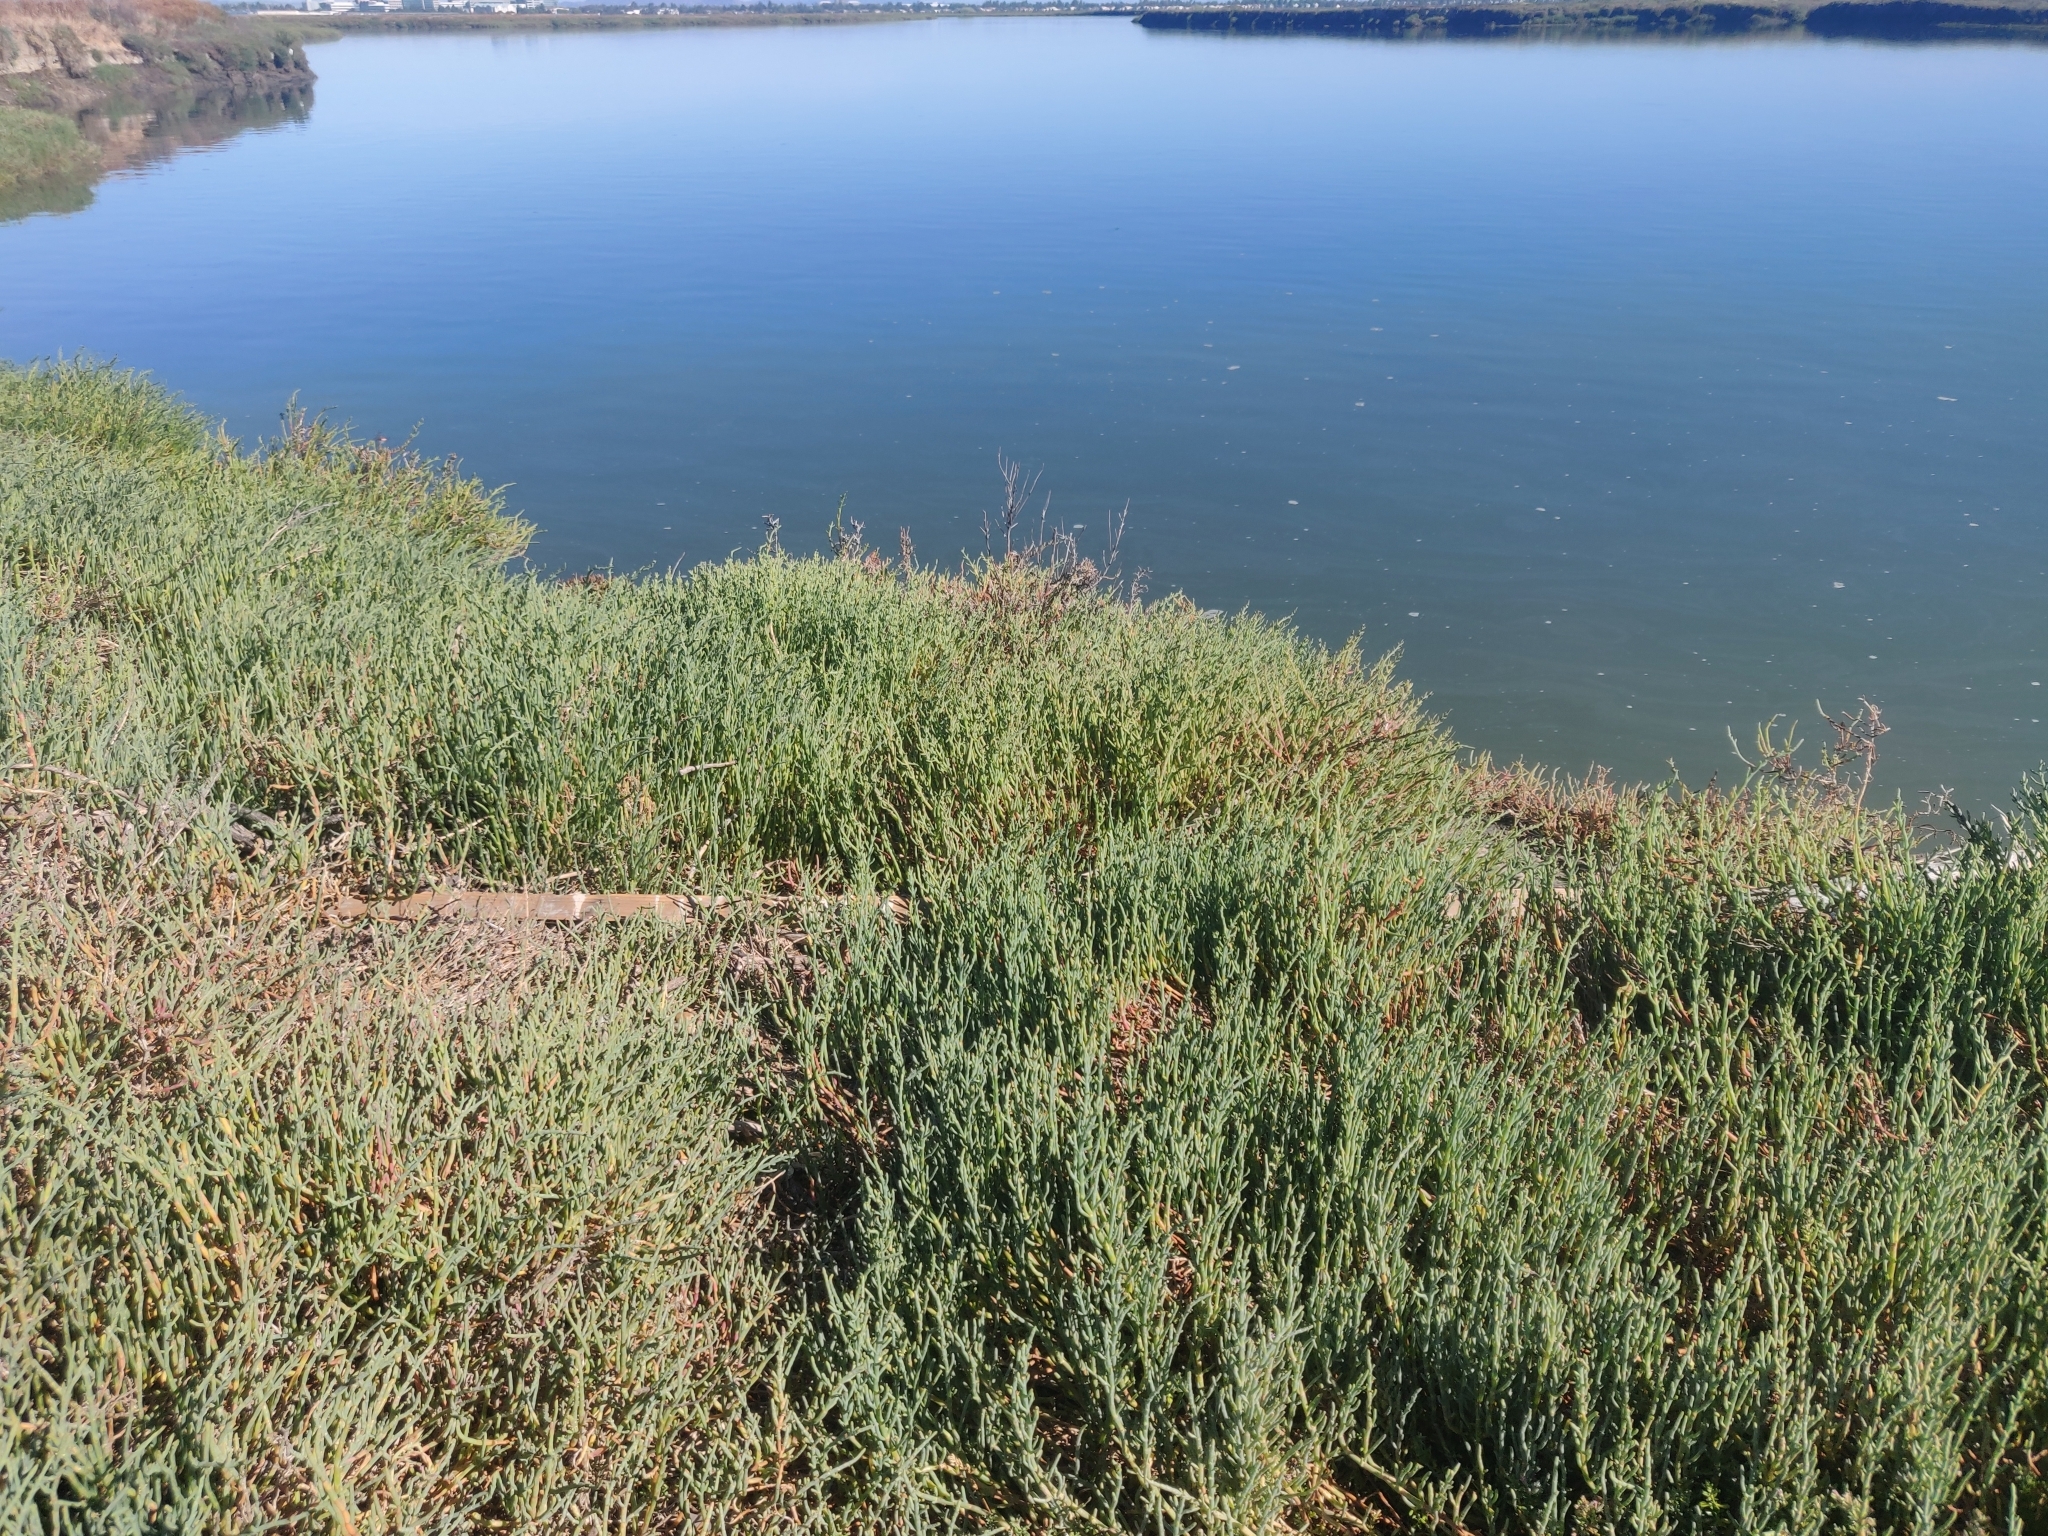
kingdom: Plantae
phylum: Tracheophyta
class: Magnoliopsida
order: Caryophyllales
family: Amaranthaceae
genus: Salicornia
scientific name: Salicornia pacifica
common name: Pacific glasswort
